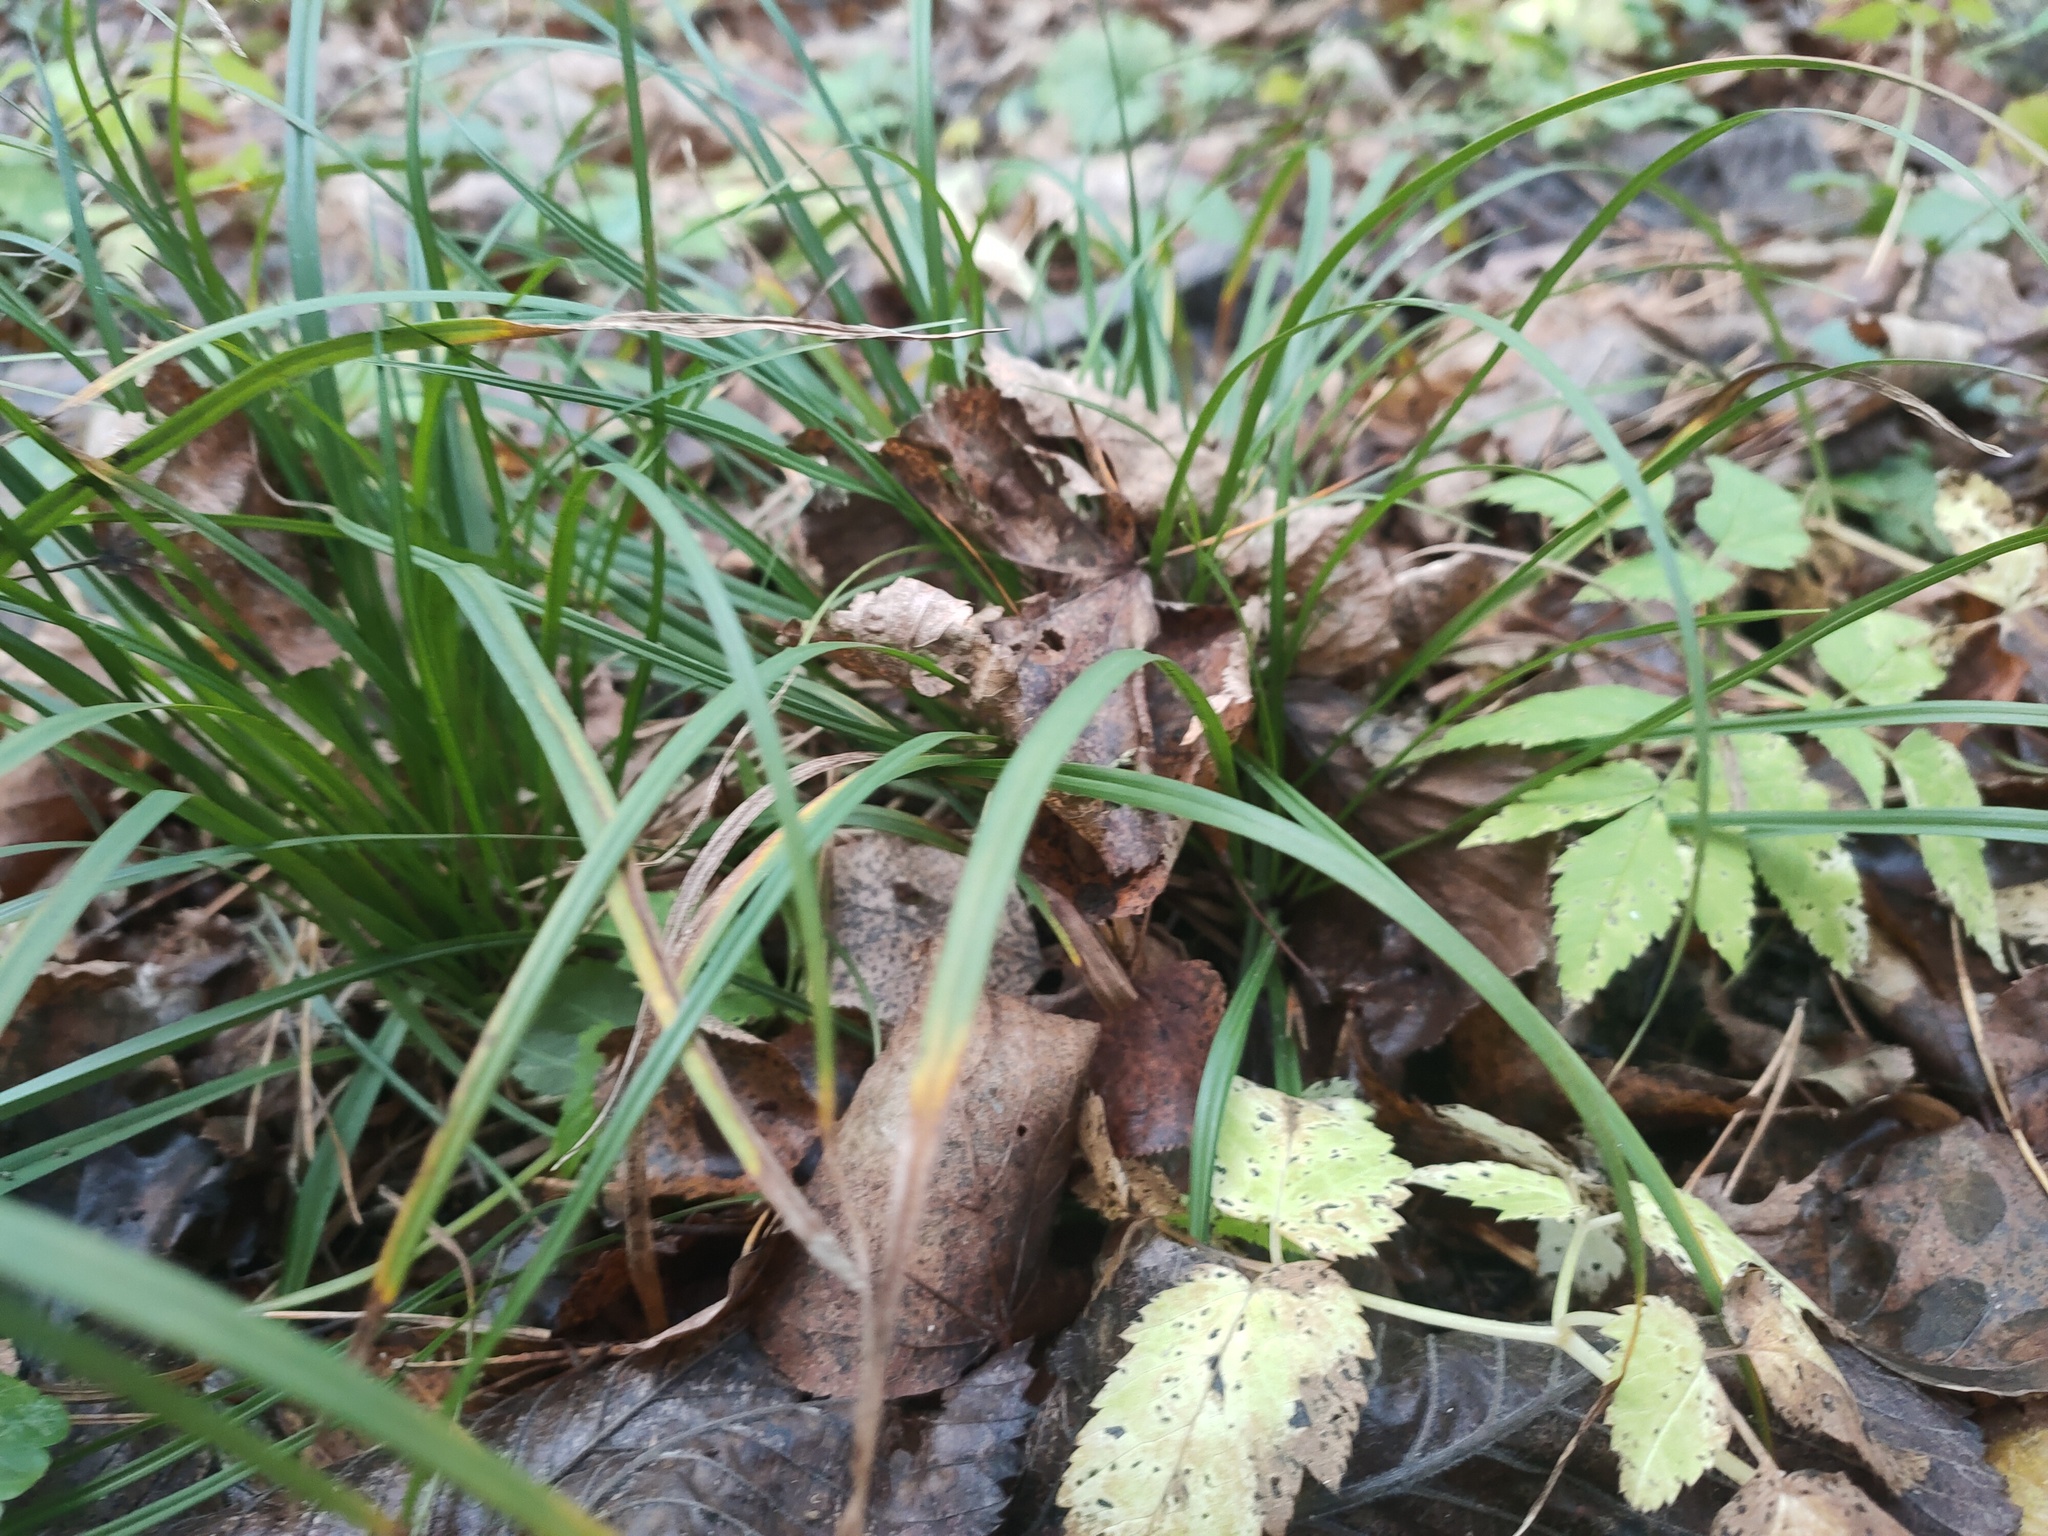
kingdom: Plantae
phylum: Tracheophyta
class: Liliopsida
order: Poales
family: Cyperaceae
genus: Carex
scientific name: Carex digitata
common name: Fingered sedge
